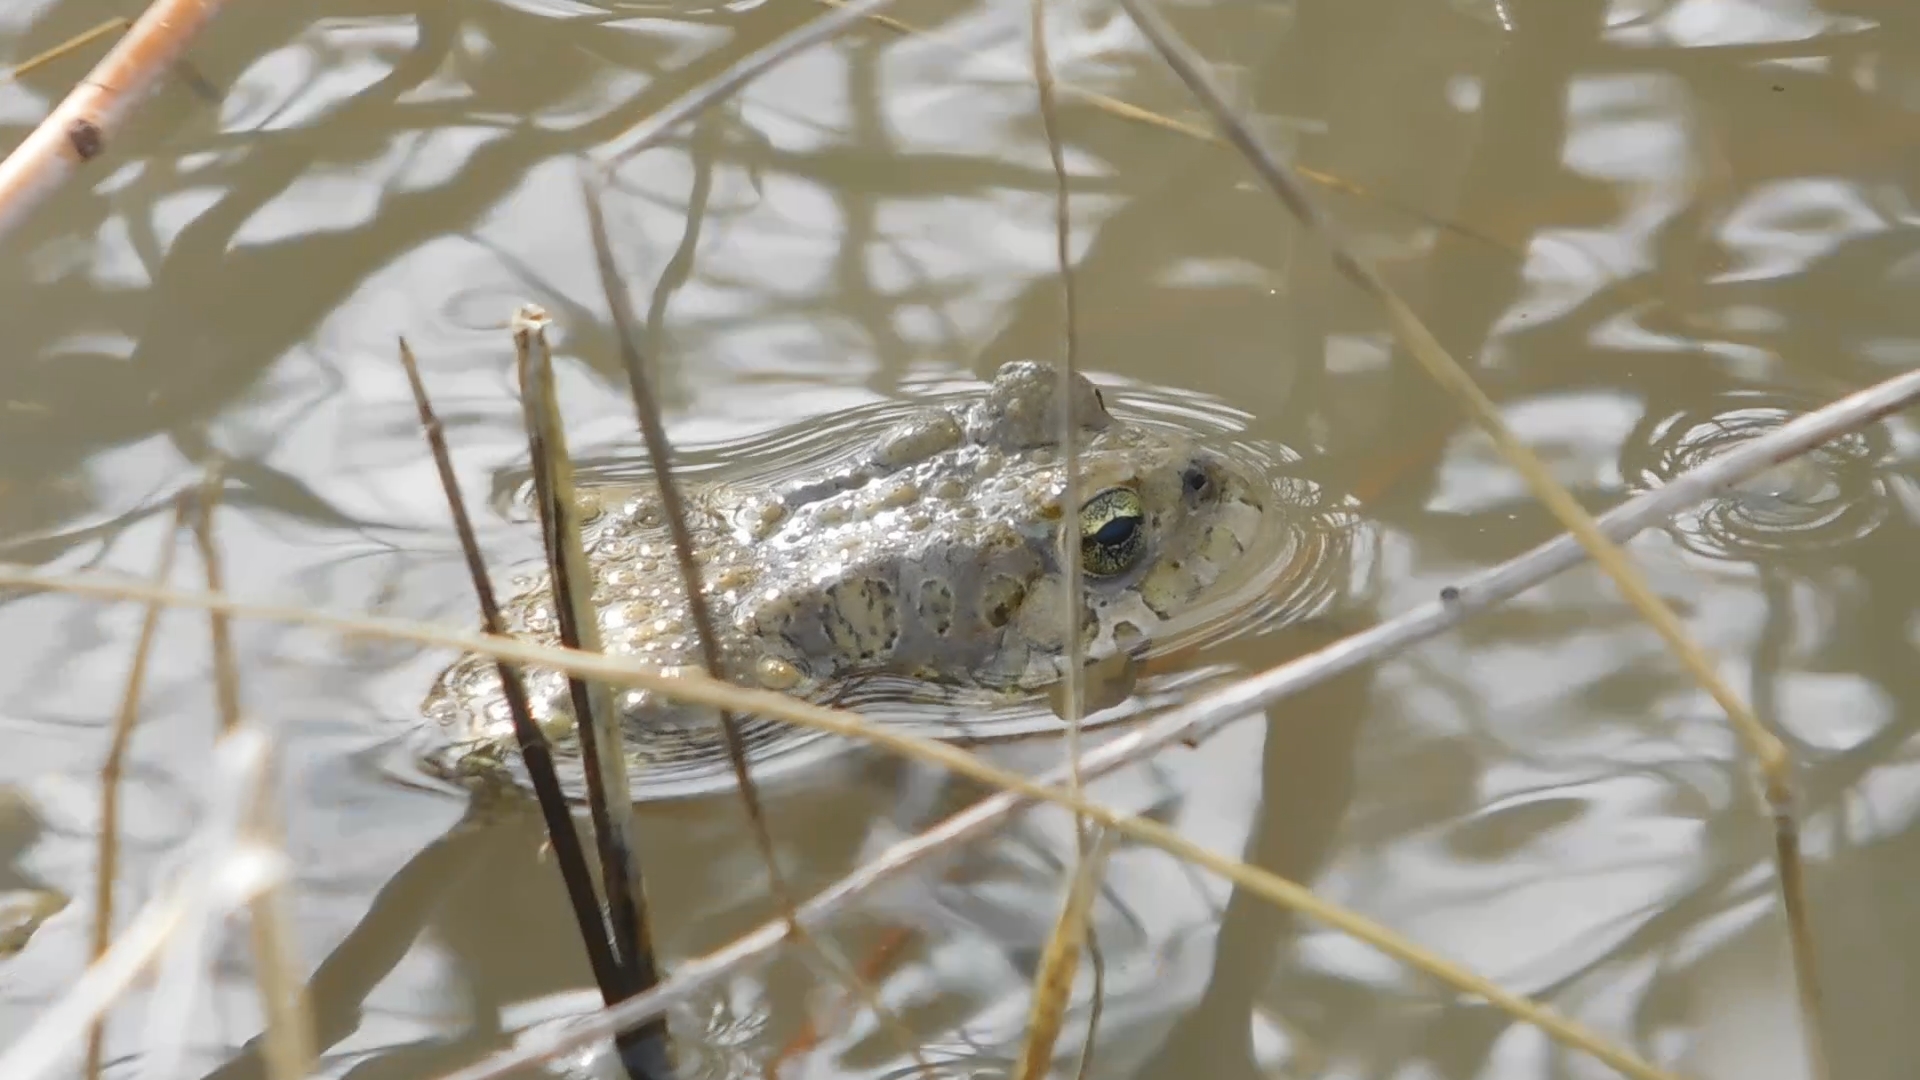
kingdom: Animalia
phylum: Chordata
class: Amphibia
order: Anura
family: Bufonidae
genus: Bufotes
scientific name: Bufotes viridis
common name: European green toad
